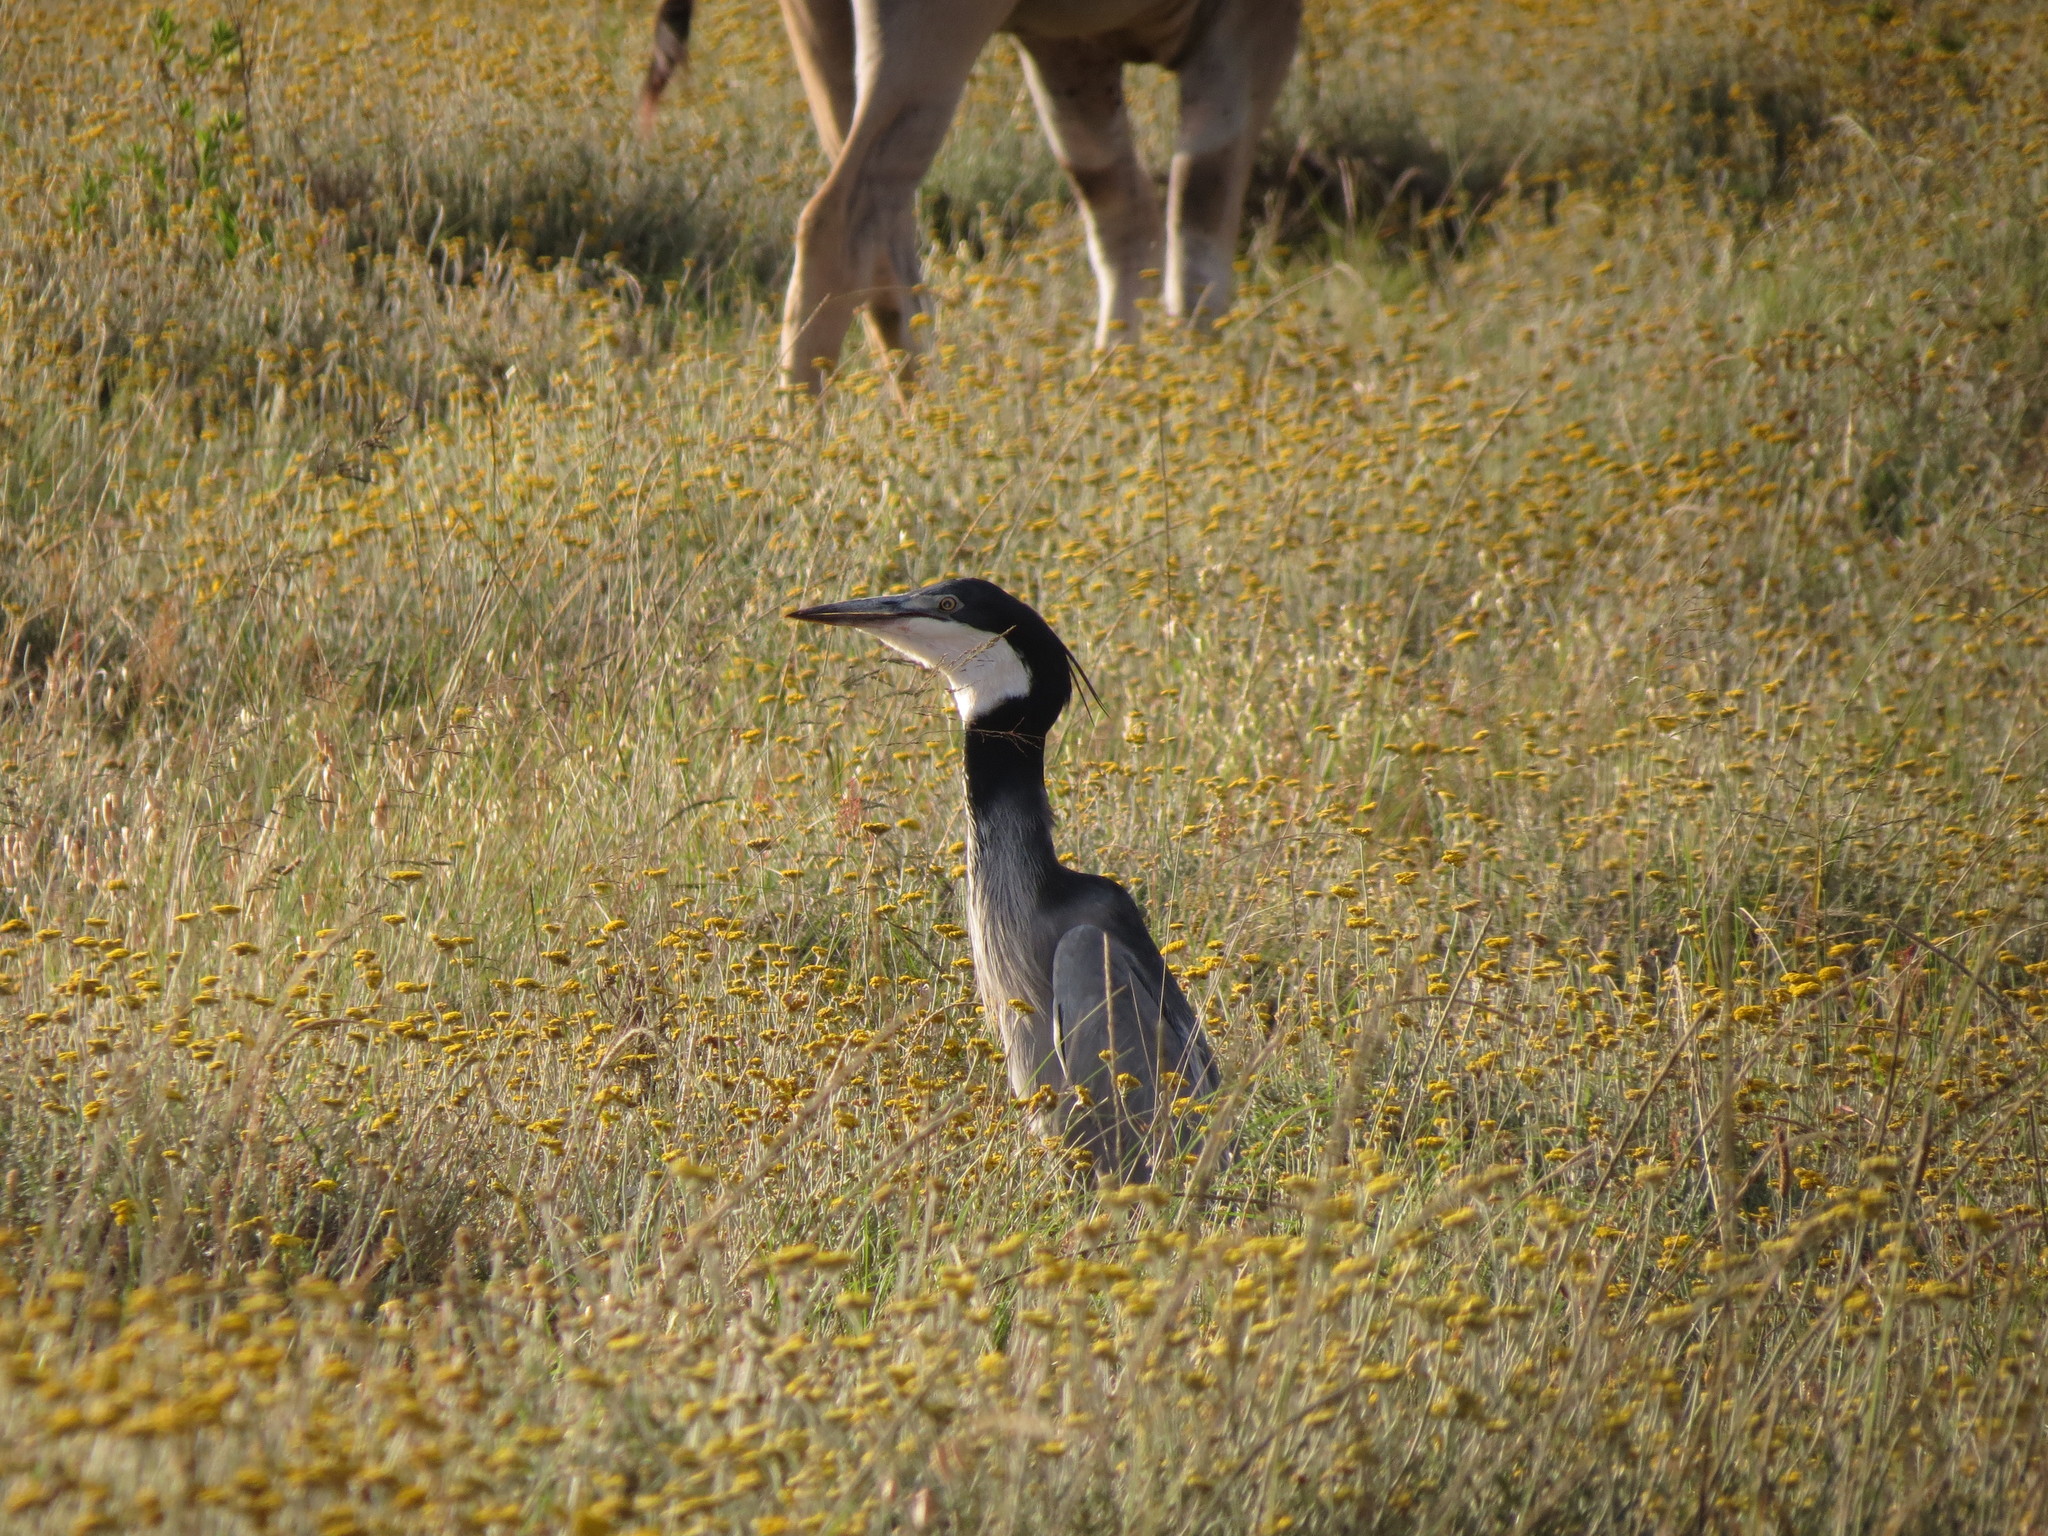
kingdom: Animalia
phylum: Chordata
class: Aves
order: Pelecaniformes
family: Ardeidae
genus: Ardea
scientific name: Ardea melanocephala
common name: Black-headed heron
